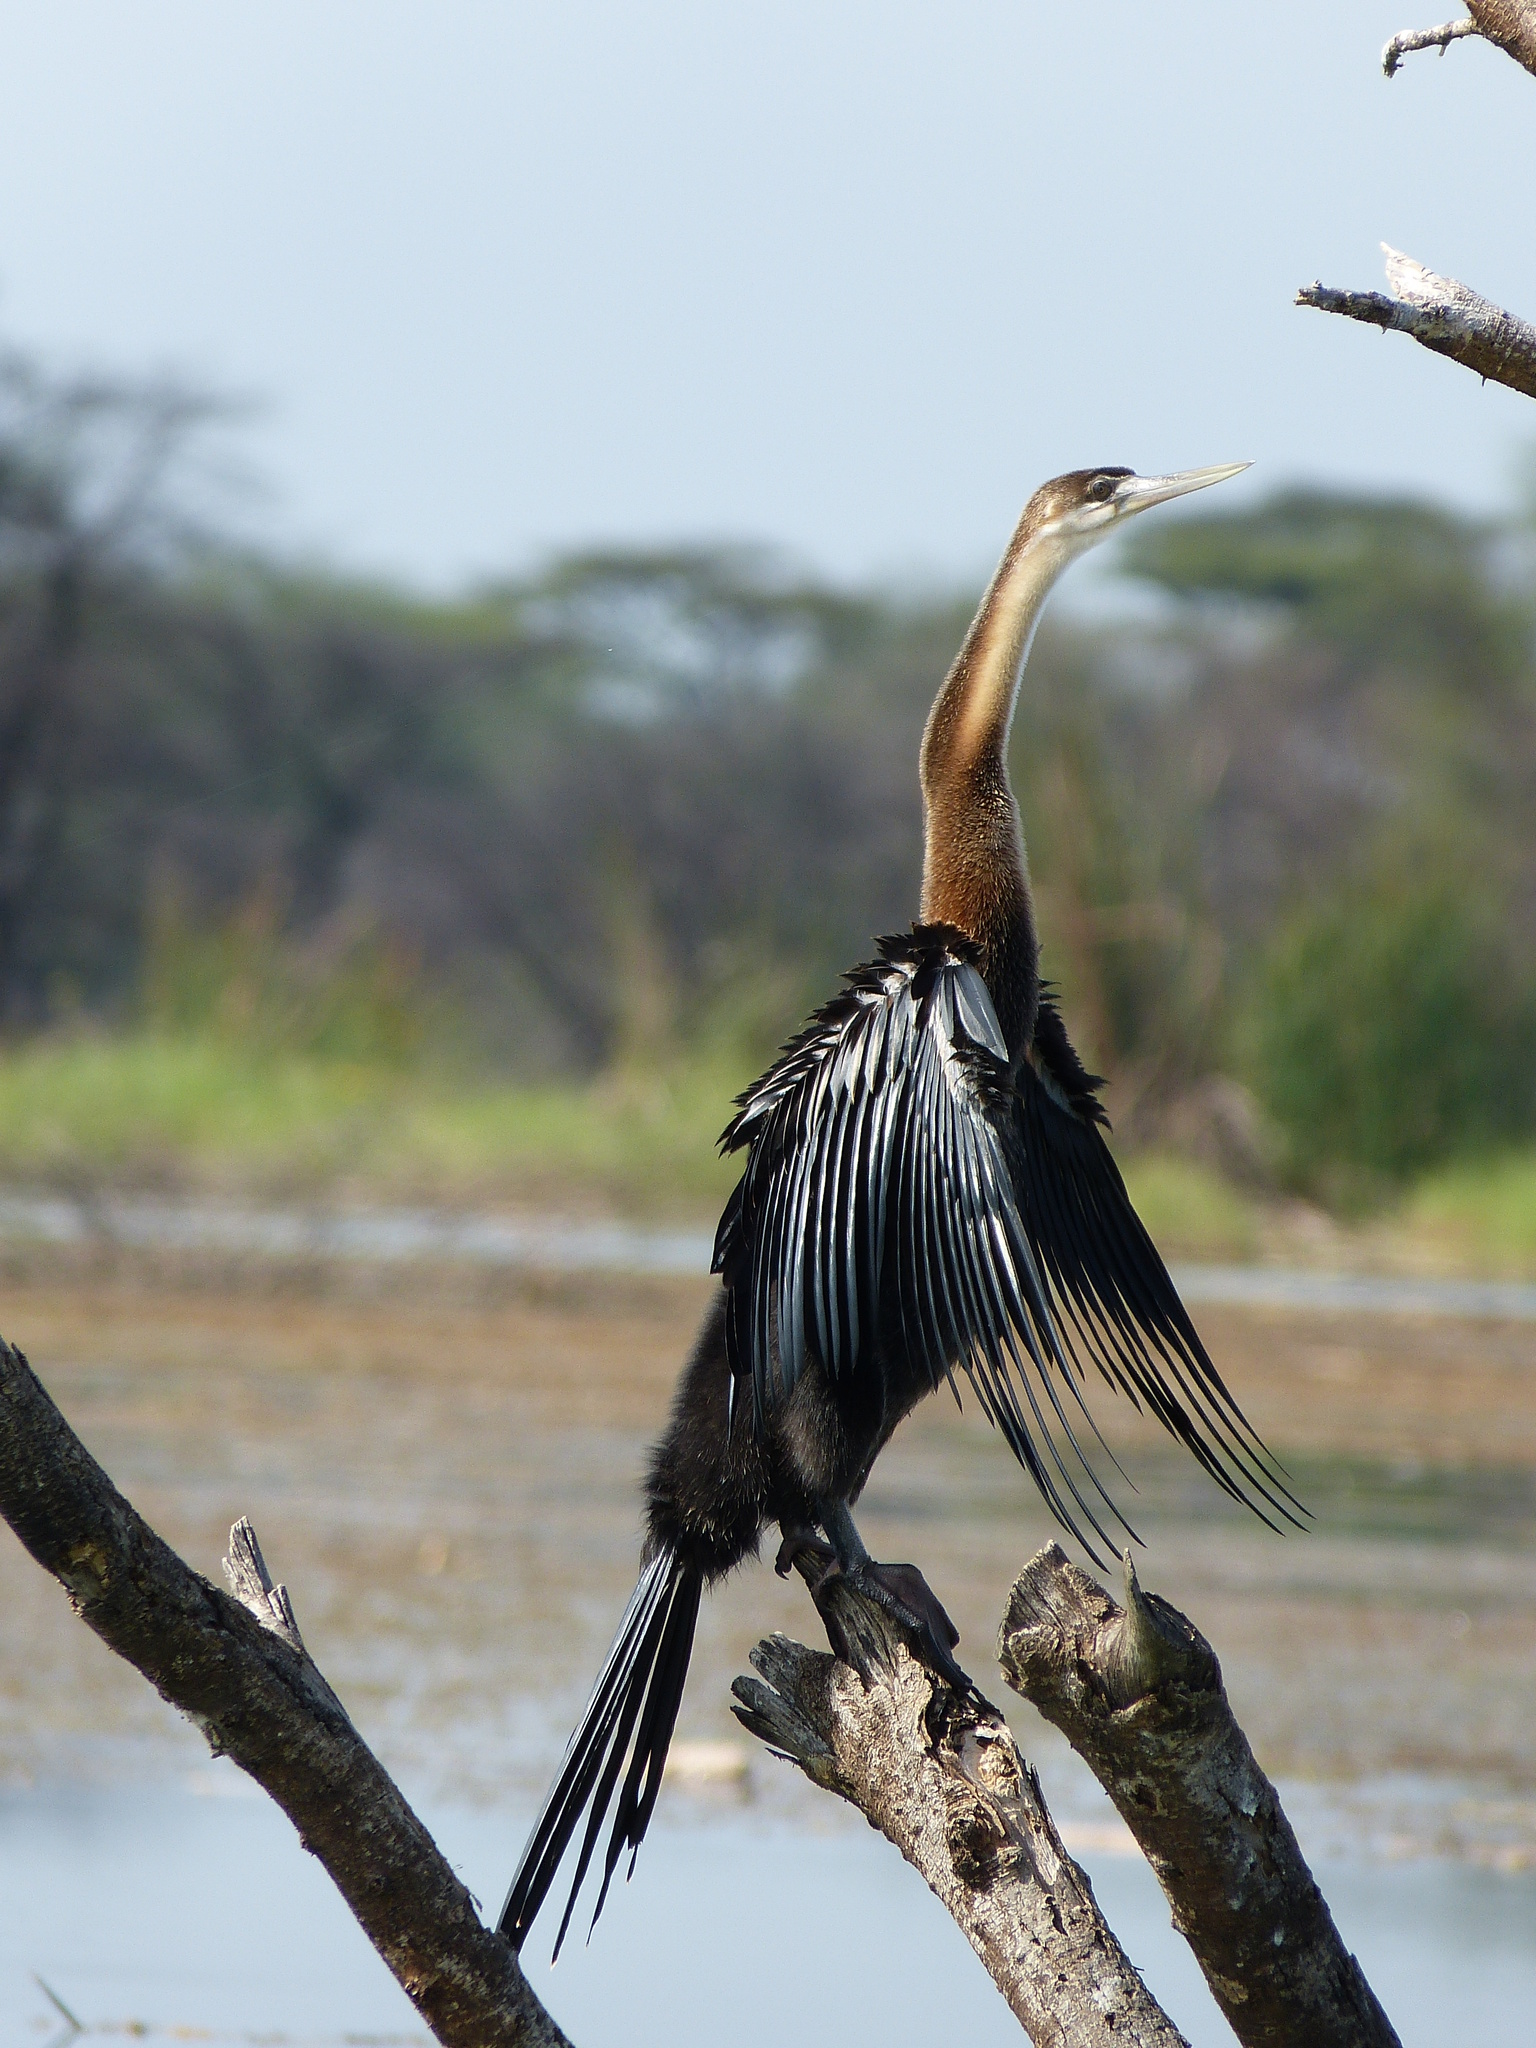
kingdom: Animalia
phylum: Chordata
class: Aves
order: Suliformes
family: Anhingidae
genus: Anhinga
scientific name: Anhinga rufa
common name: African darter
